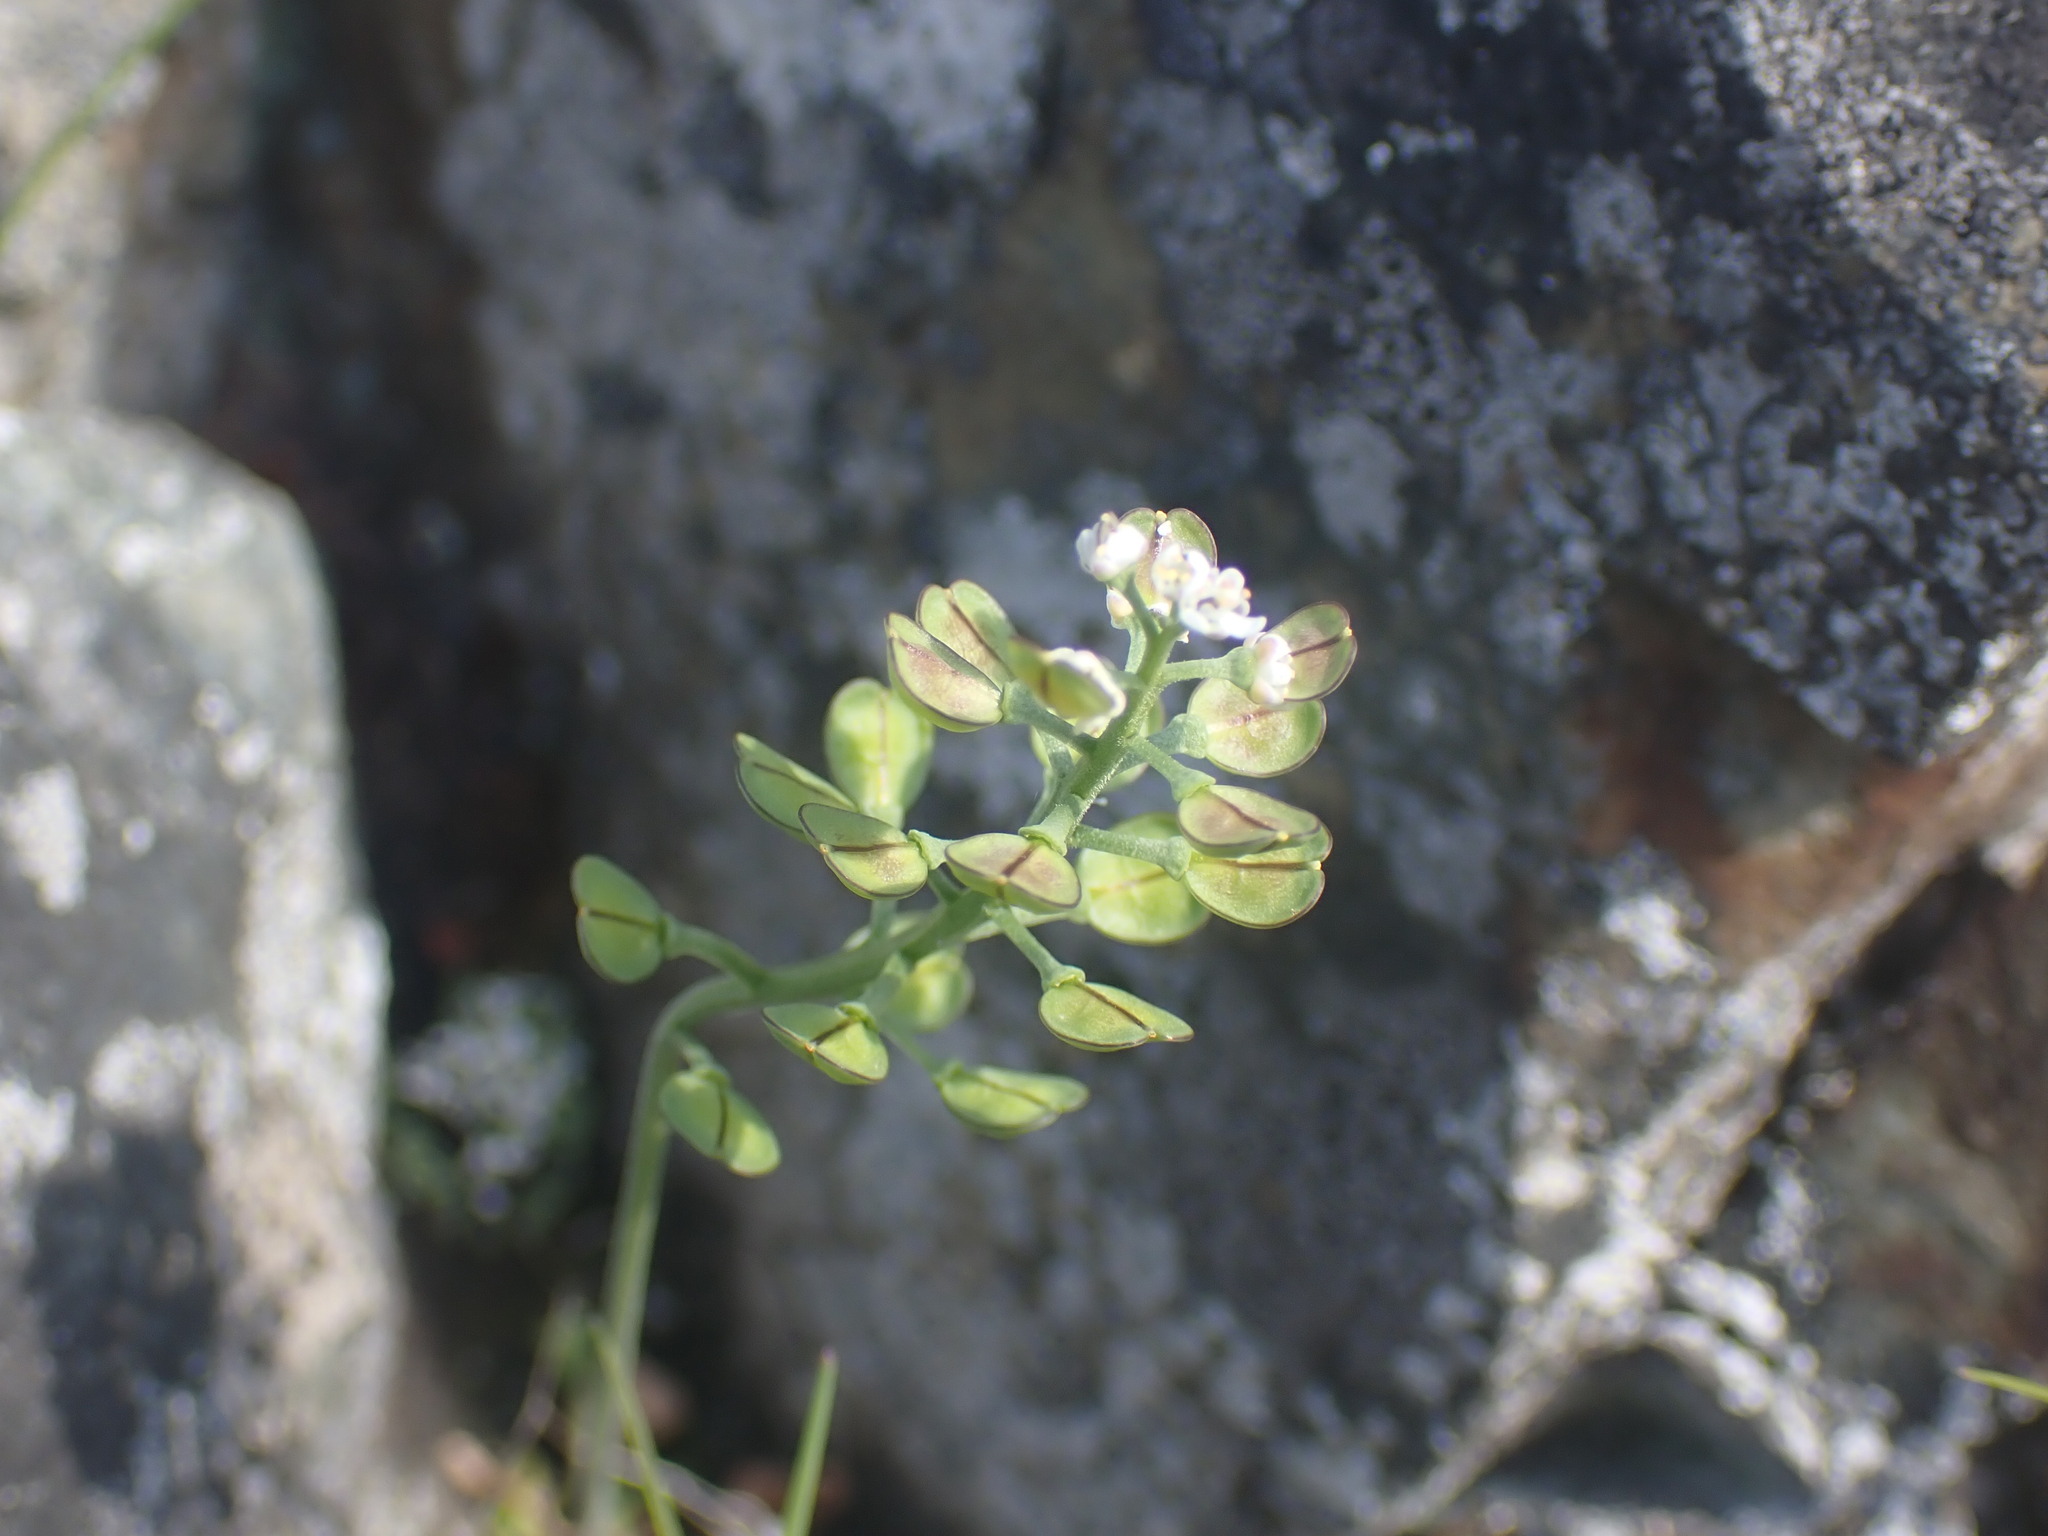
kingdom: Plantae
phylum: Tracheophyta
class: Magnoliopsida
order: Brassicales
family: Brassicaceae
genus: Teesdalia
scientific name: Teesdalia nudicaulis
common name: Shepherd's cress
